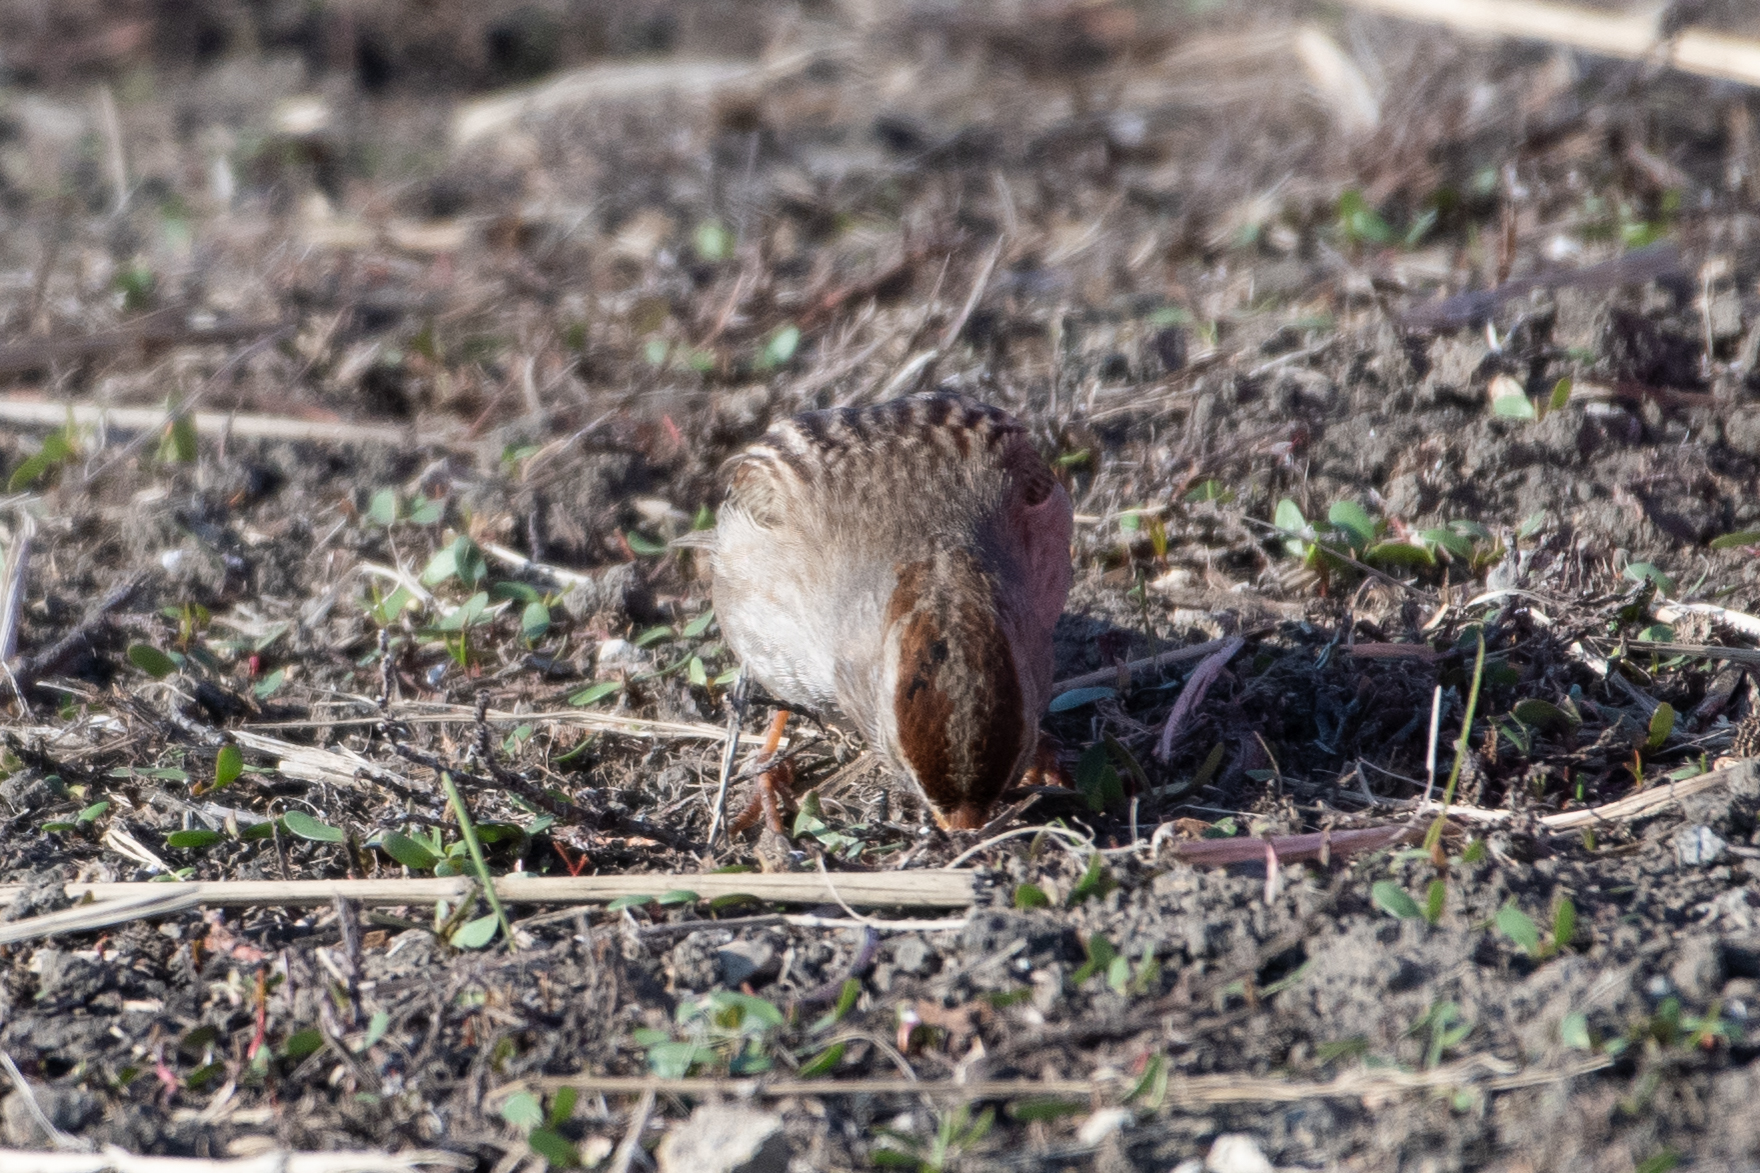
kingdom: Animalia
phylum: Chordata
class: Aves
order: Passeriformes
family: Passerellidae
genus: Zonotrichia
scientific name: Zonotrichia leucophrys
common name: White-crowned sparrow
